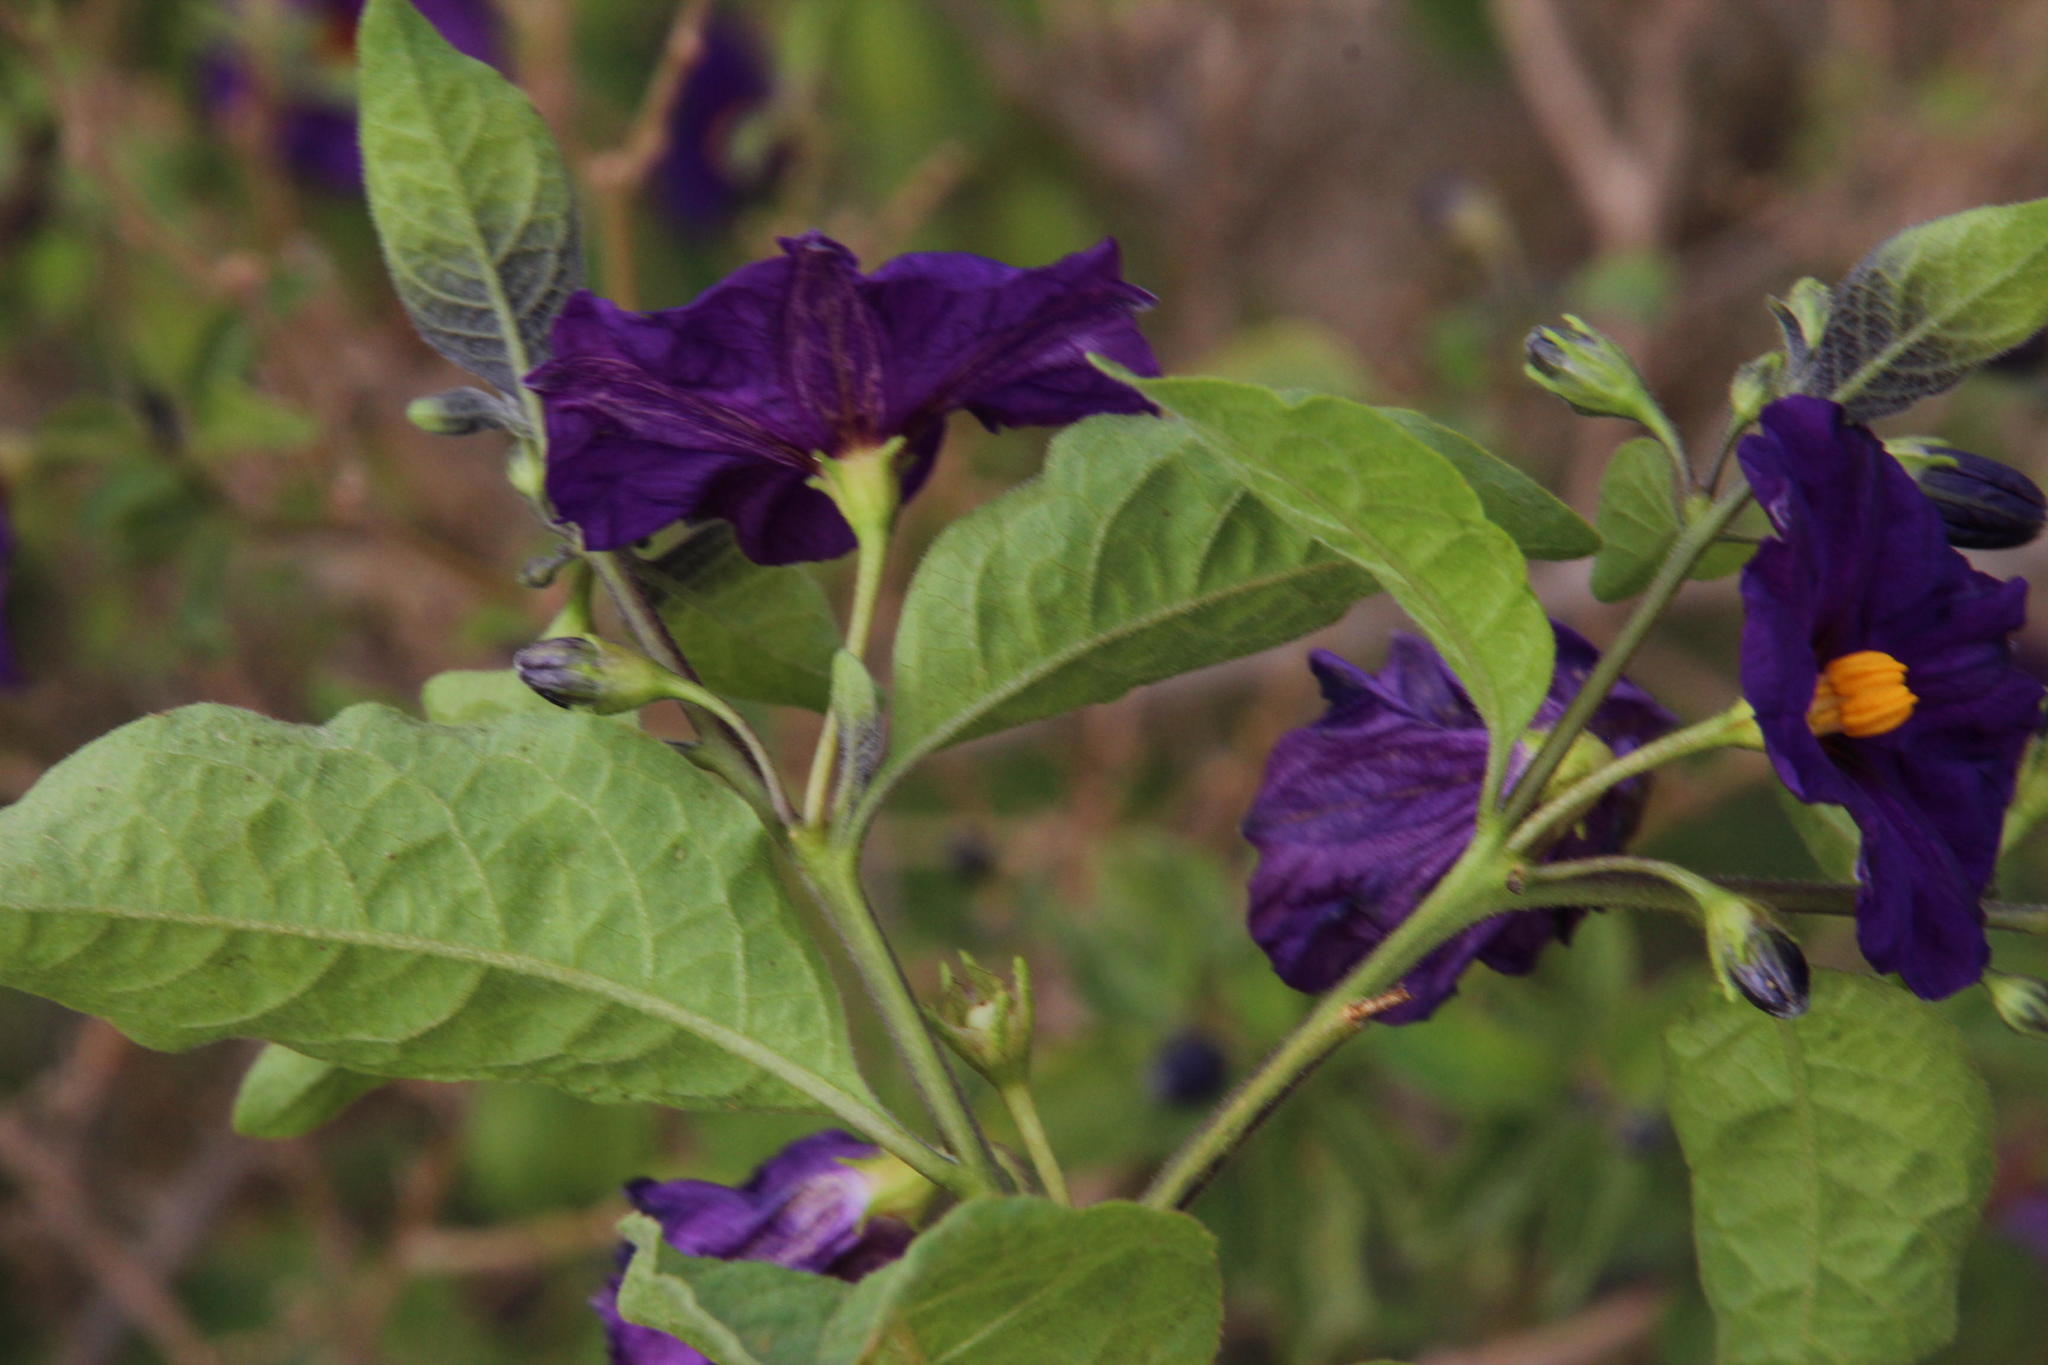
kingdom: Plantae
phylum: Tracheophyta
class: Magnoliopsida
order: Solanales
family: Solanaceae
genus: Lycianthes
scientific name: Lycianthes rantonnetii
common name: Blue potatobush
